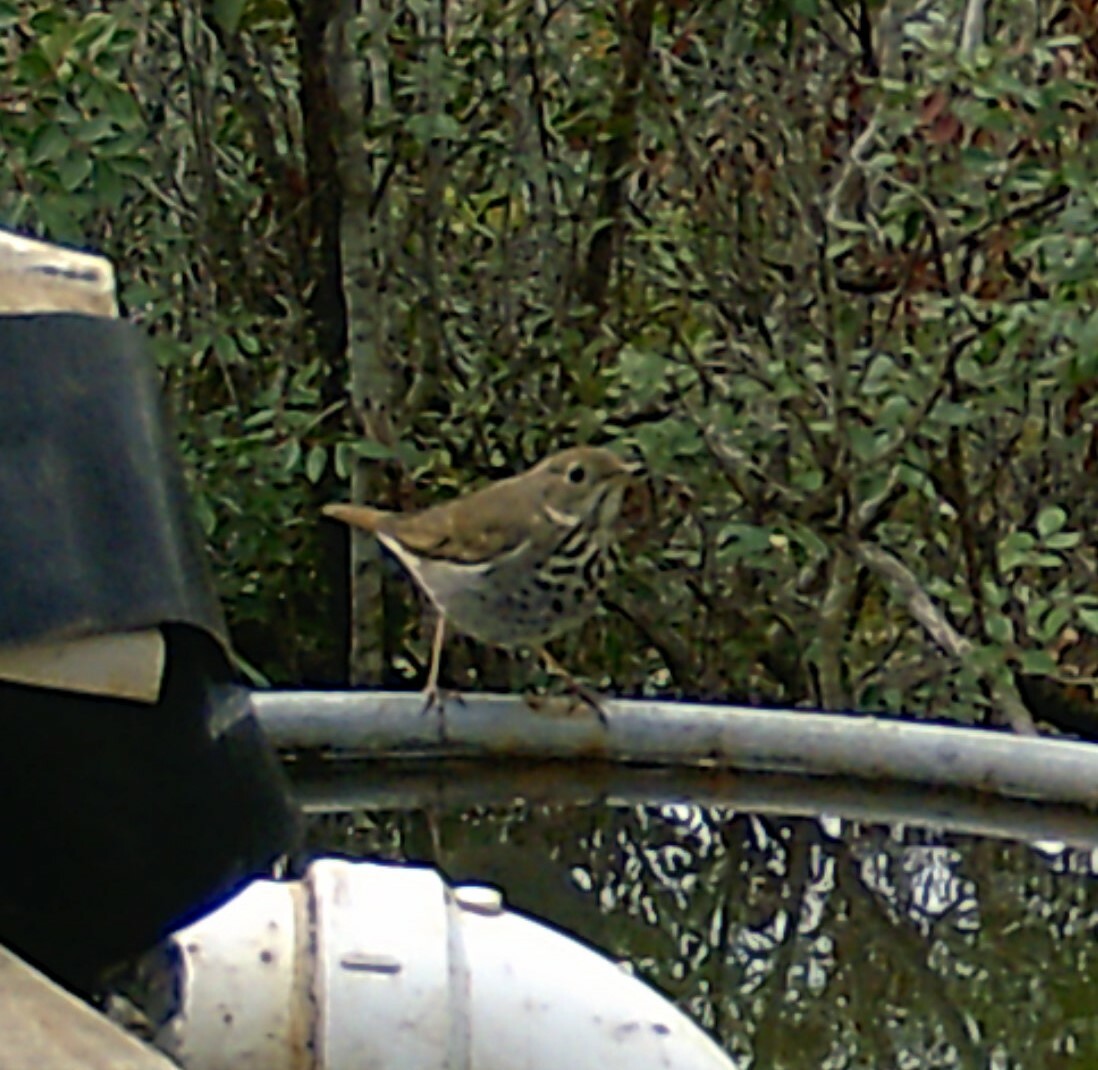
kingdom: Animalia
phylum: Chordata
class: Aves
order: Passeriformes
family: Turdidae
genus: Catharus
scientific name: Catharus guttatus
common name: Hermit thrush
